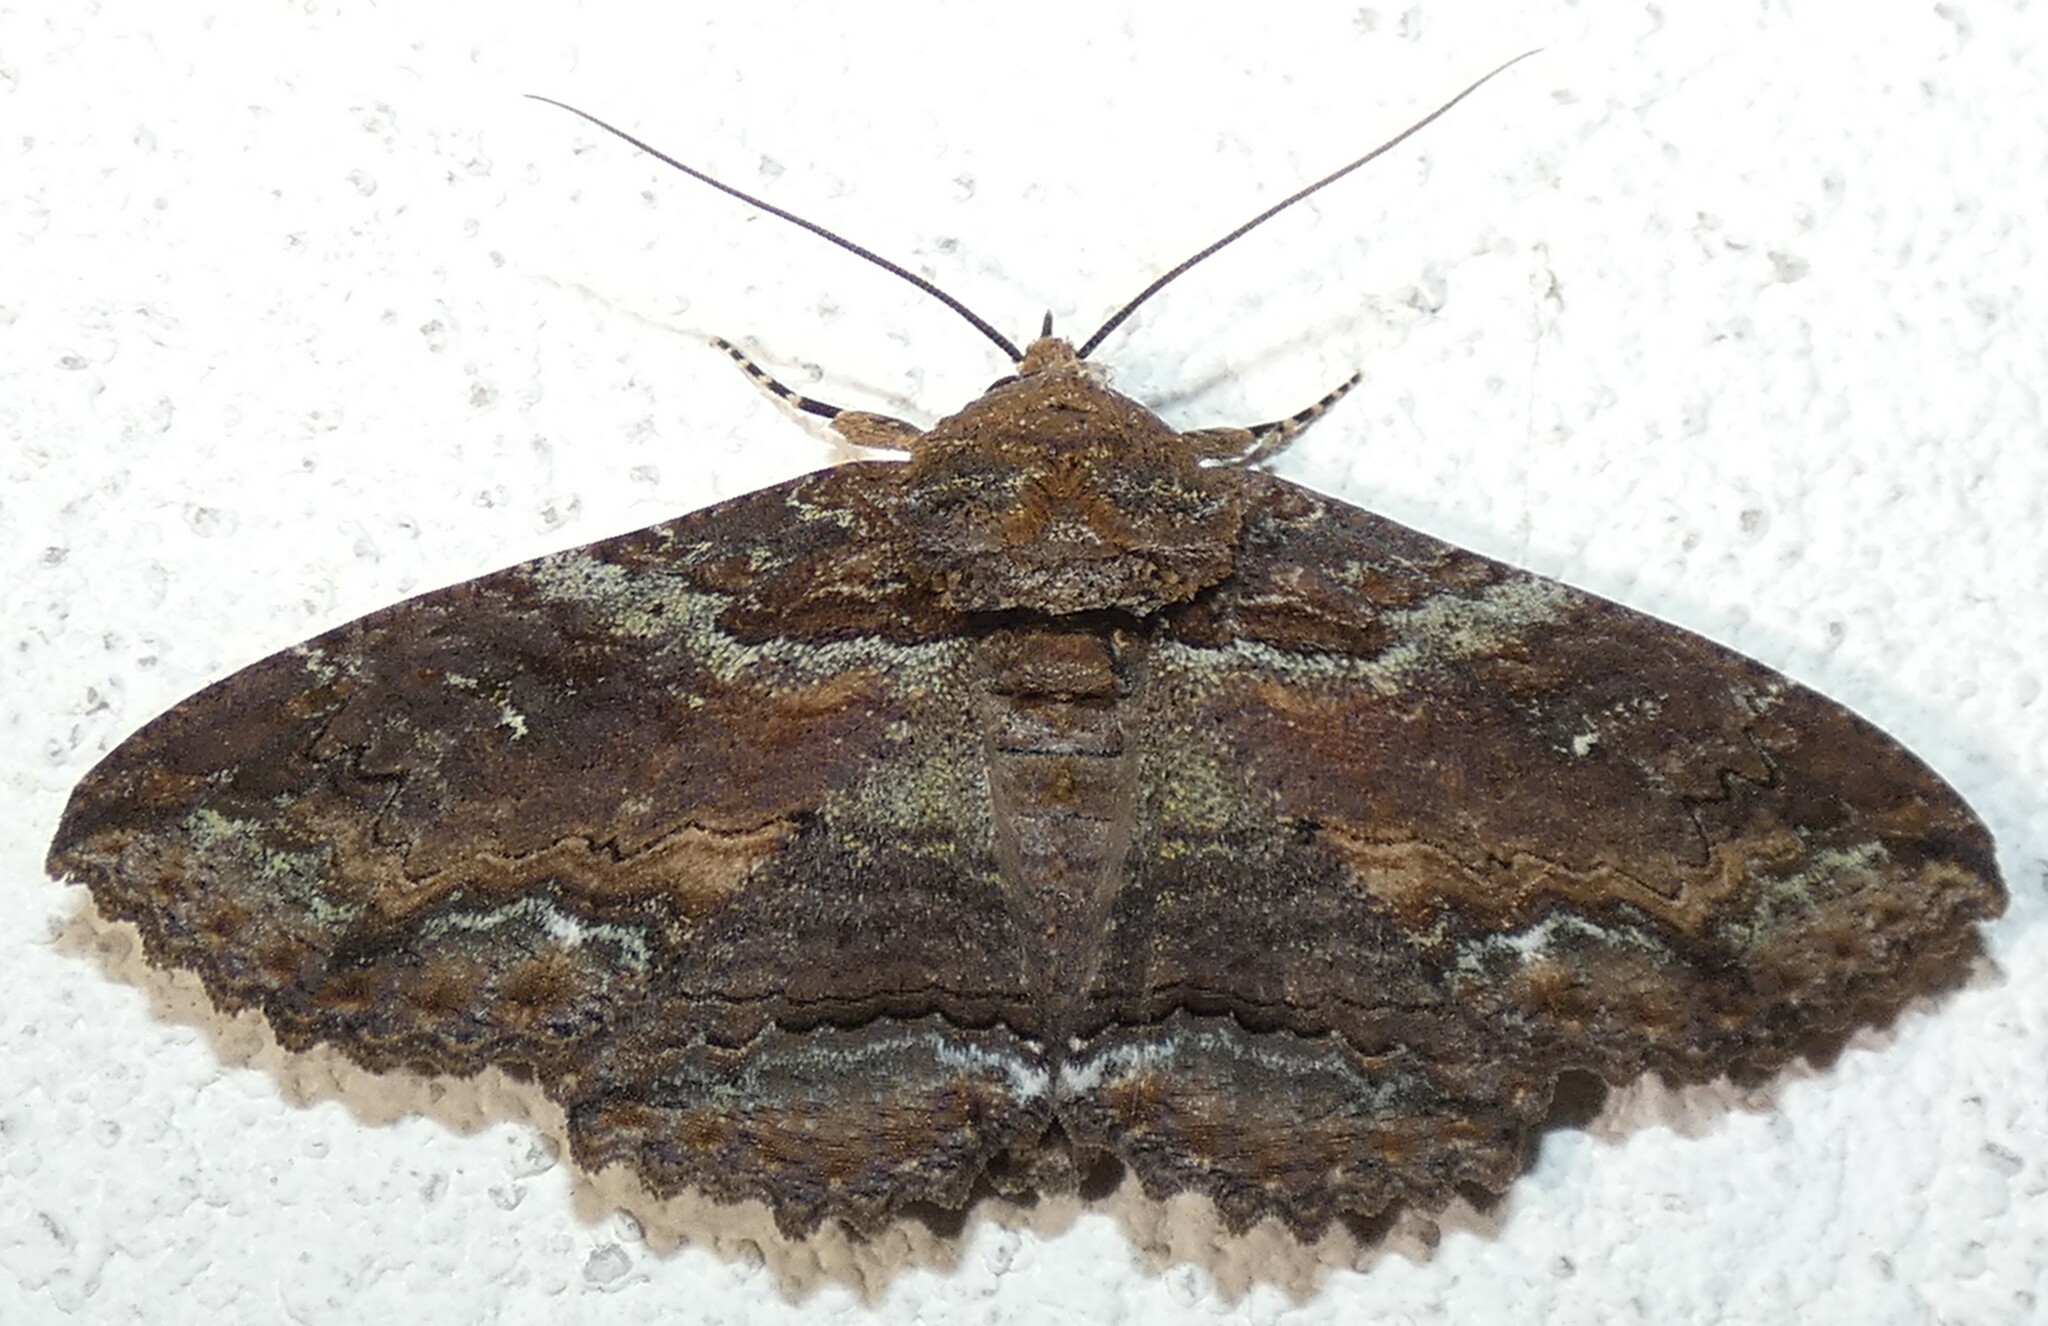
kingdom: Animalia
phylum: Arthropoda
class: Insecta
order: Lepidoptera
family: Erebidae
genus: Zale
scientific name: Zale lunata
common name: Lunate zale moth
